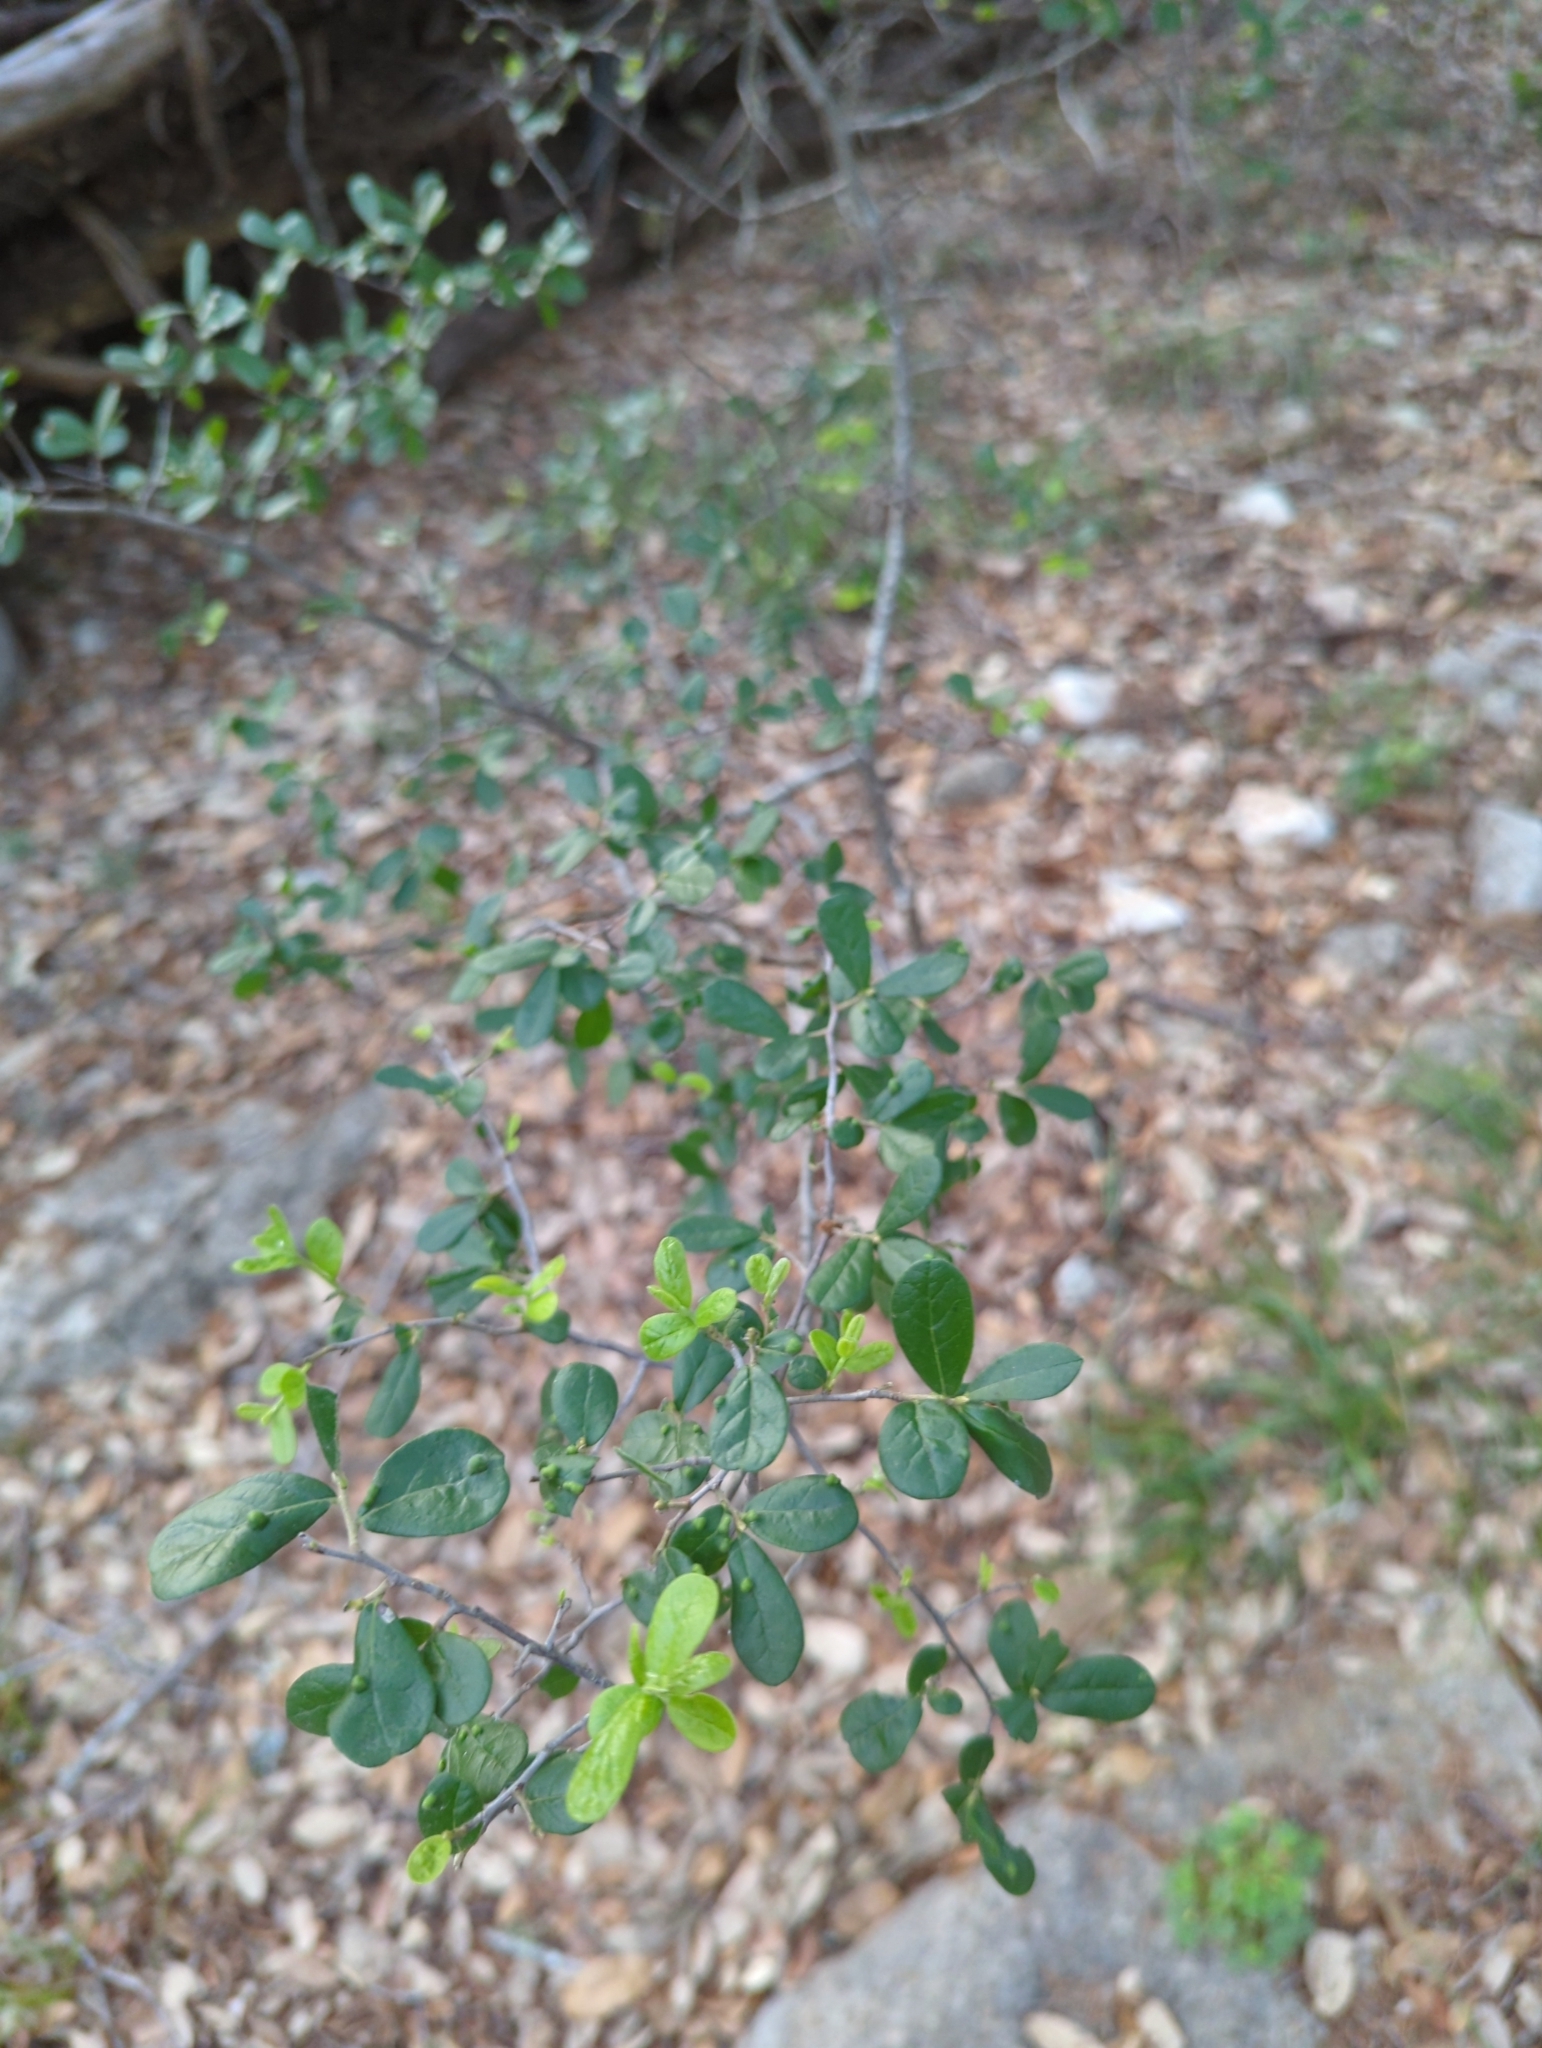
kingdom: Plantae
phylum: Tracheophyta
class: Magnoliopsida
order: Ericales
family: Ebenaceae
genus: Diospyros
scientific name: Diospyros texana
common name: Texas persimmon
